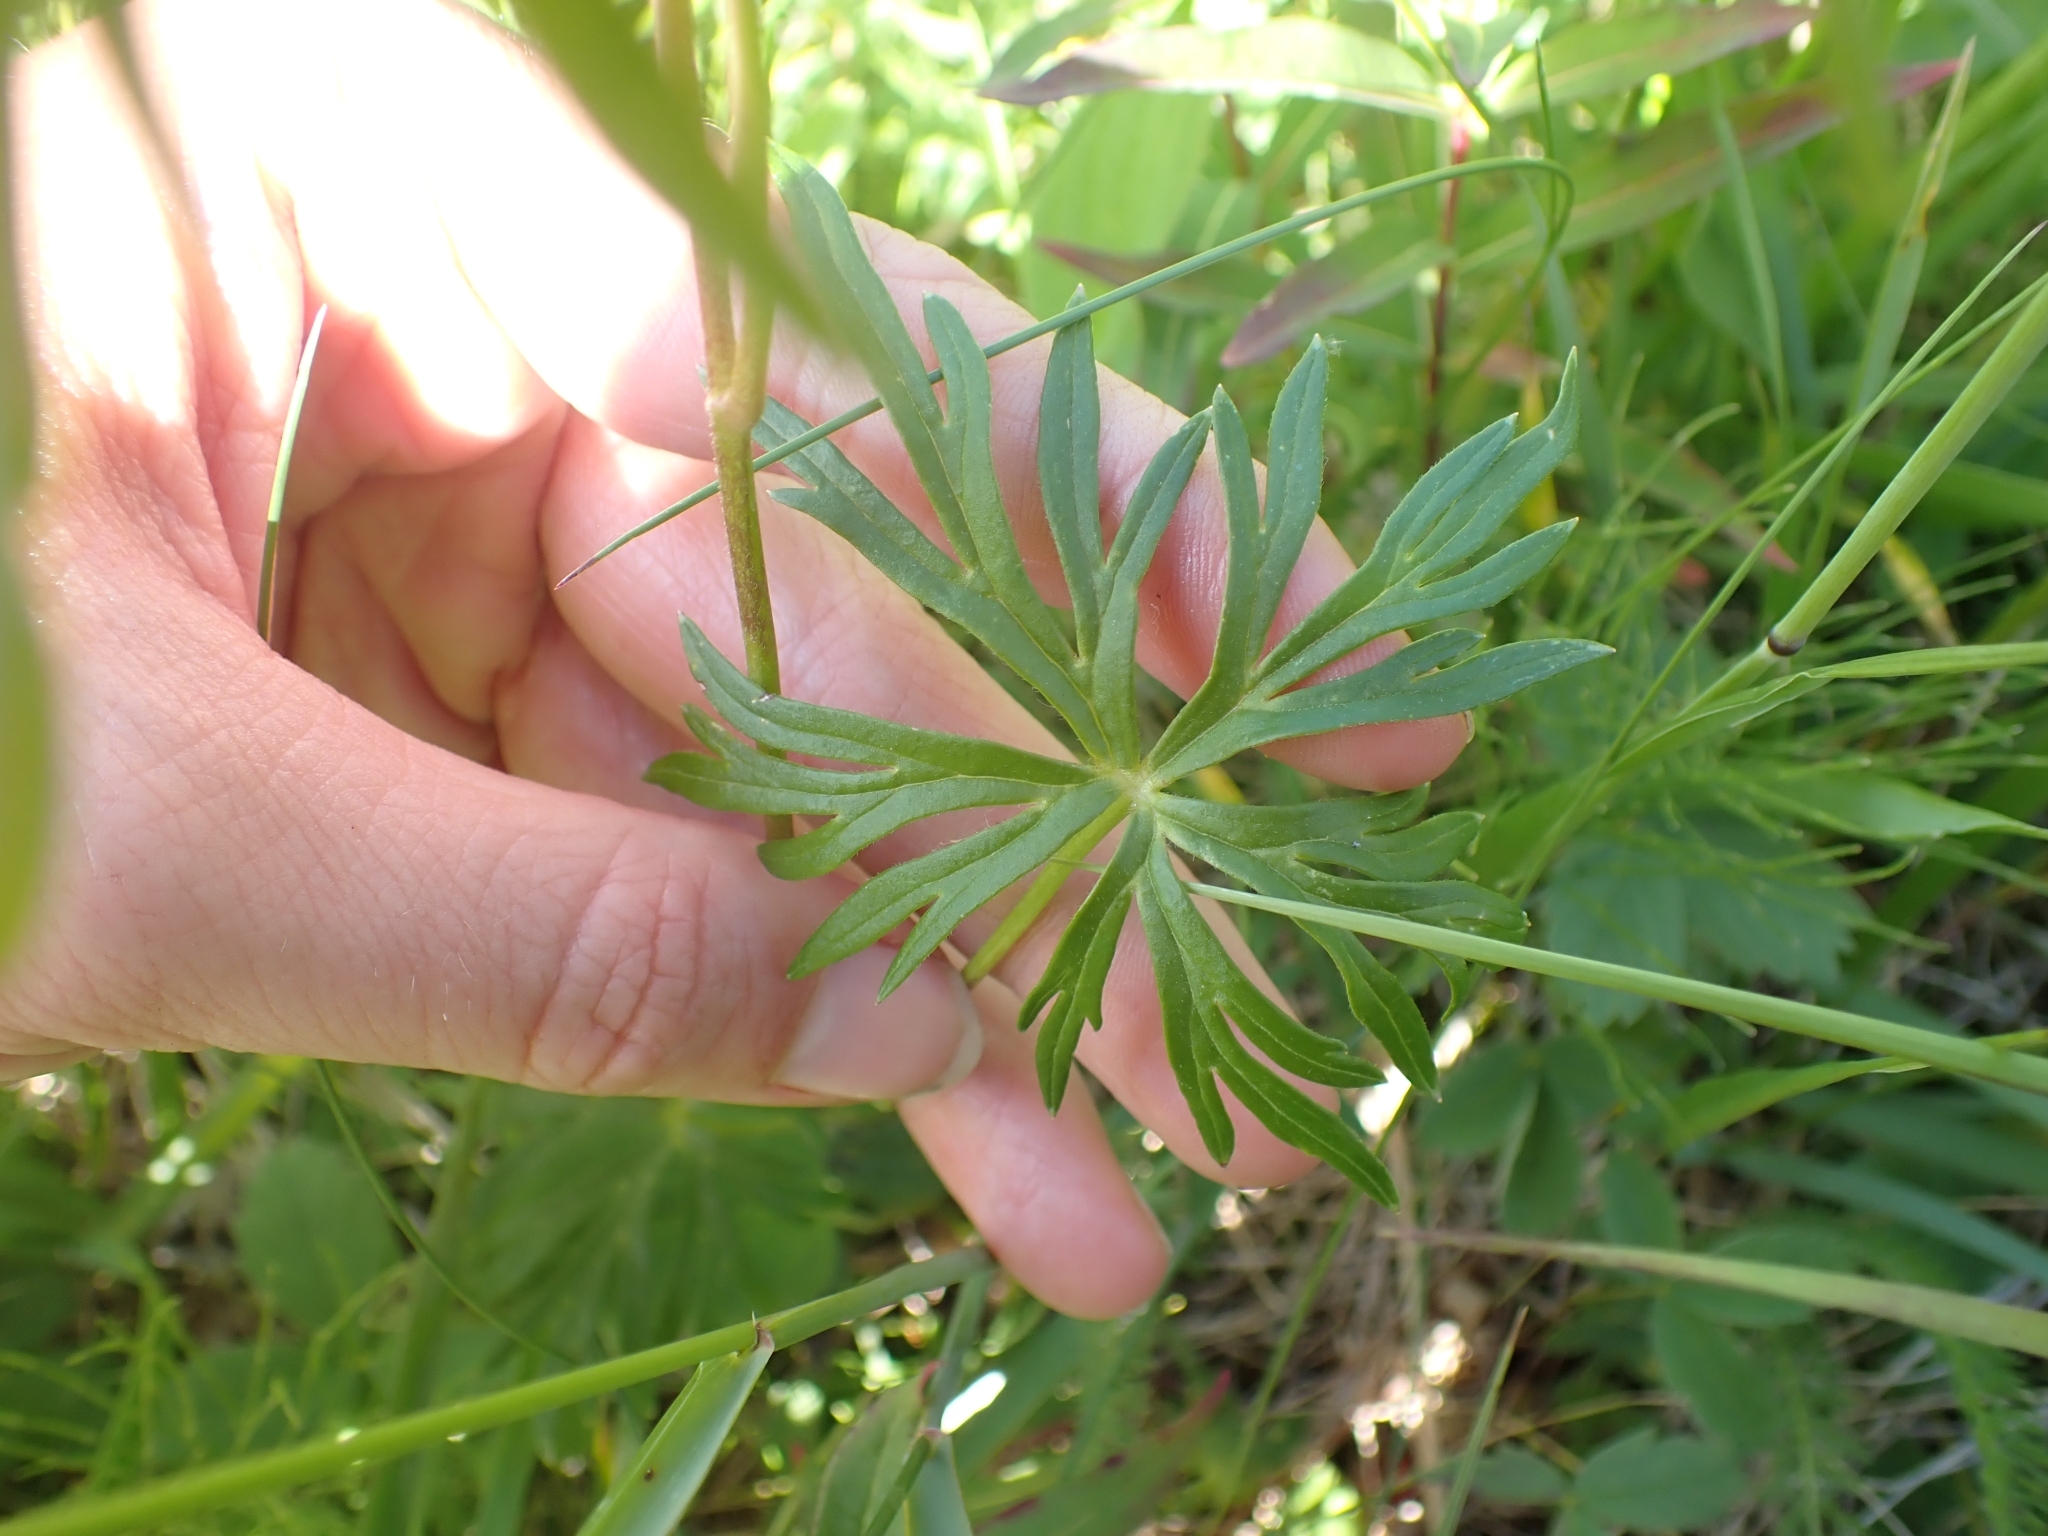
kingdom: Plantae
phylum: Tracheophyta
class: Magnoliopsida
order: Ranunculales
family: Ranunculaceae
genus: Aconitum
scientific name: Aconitum delphiniifolium
